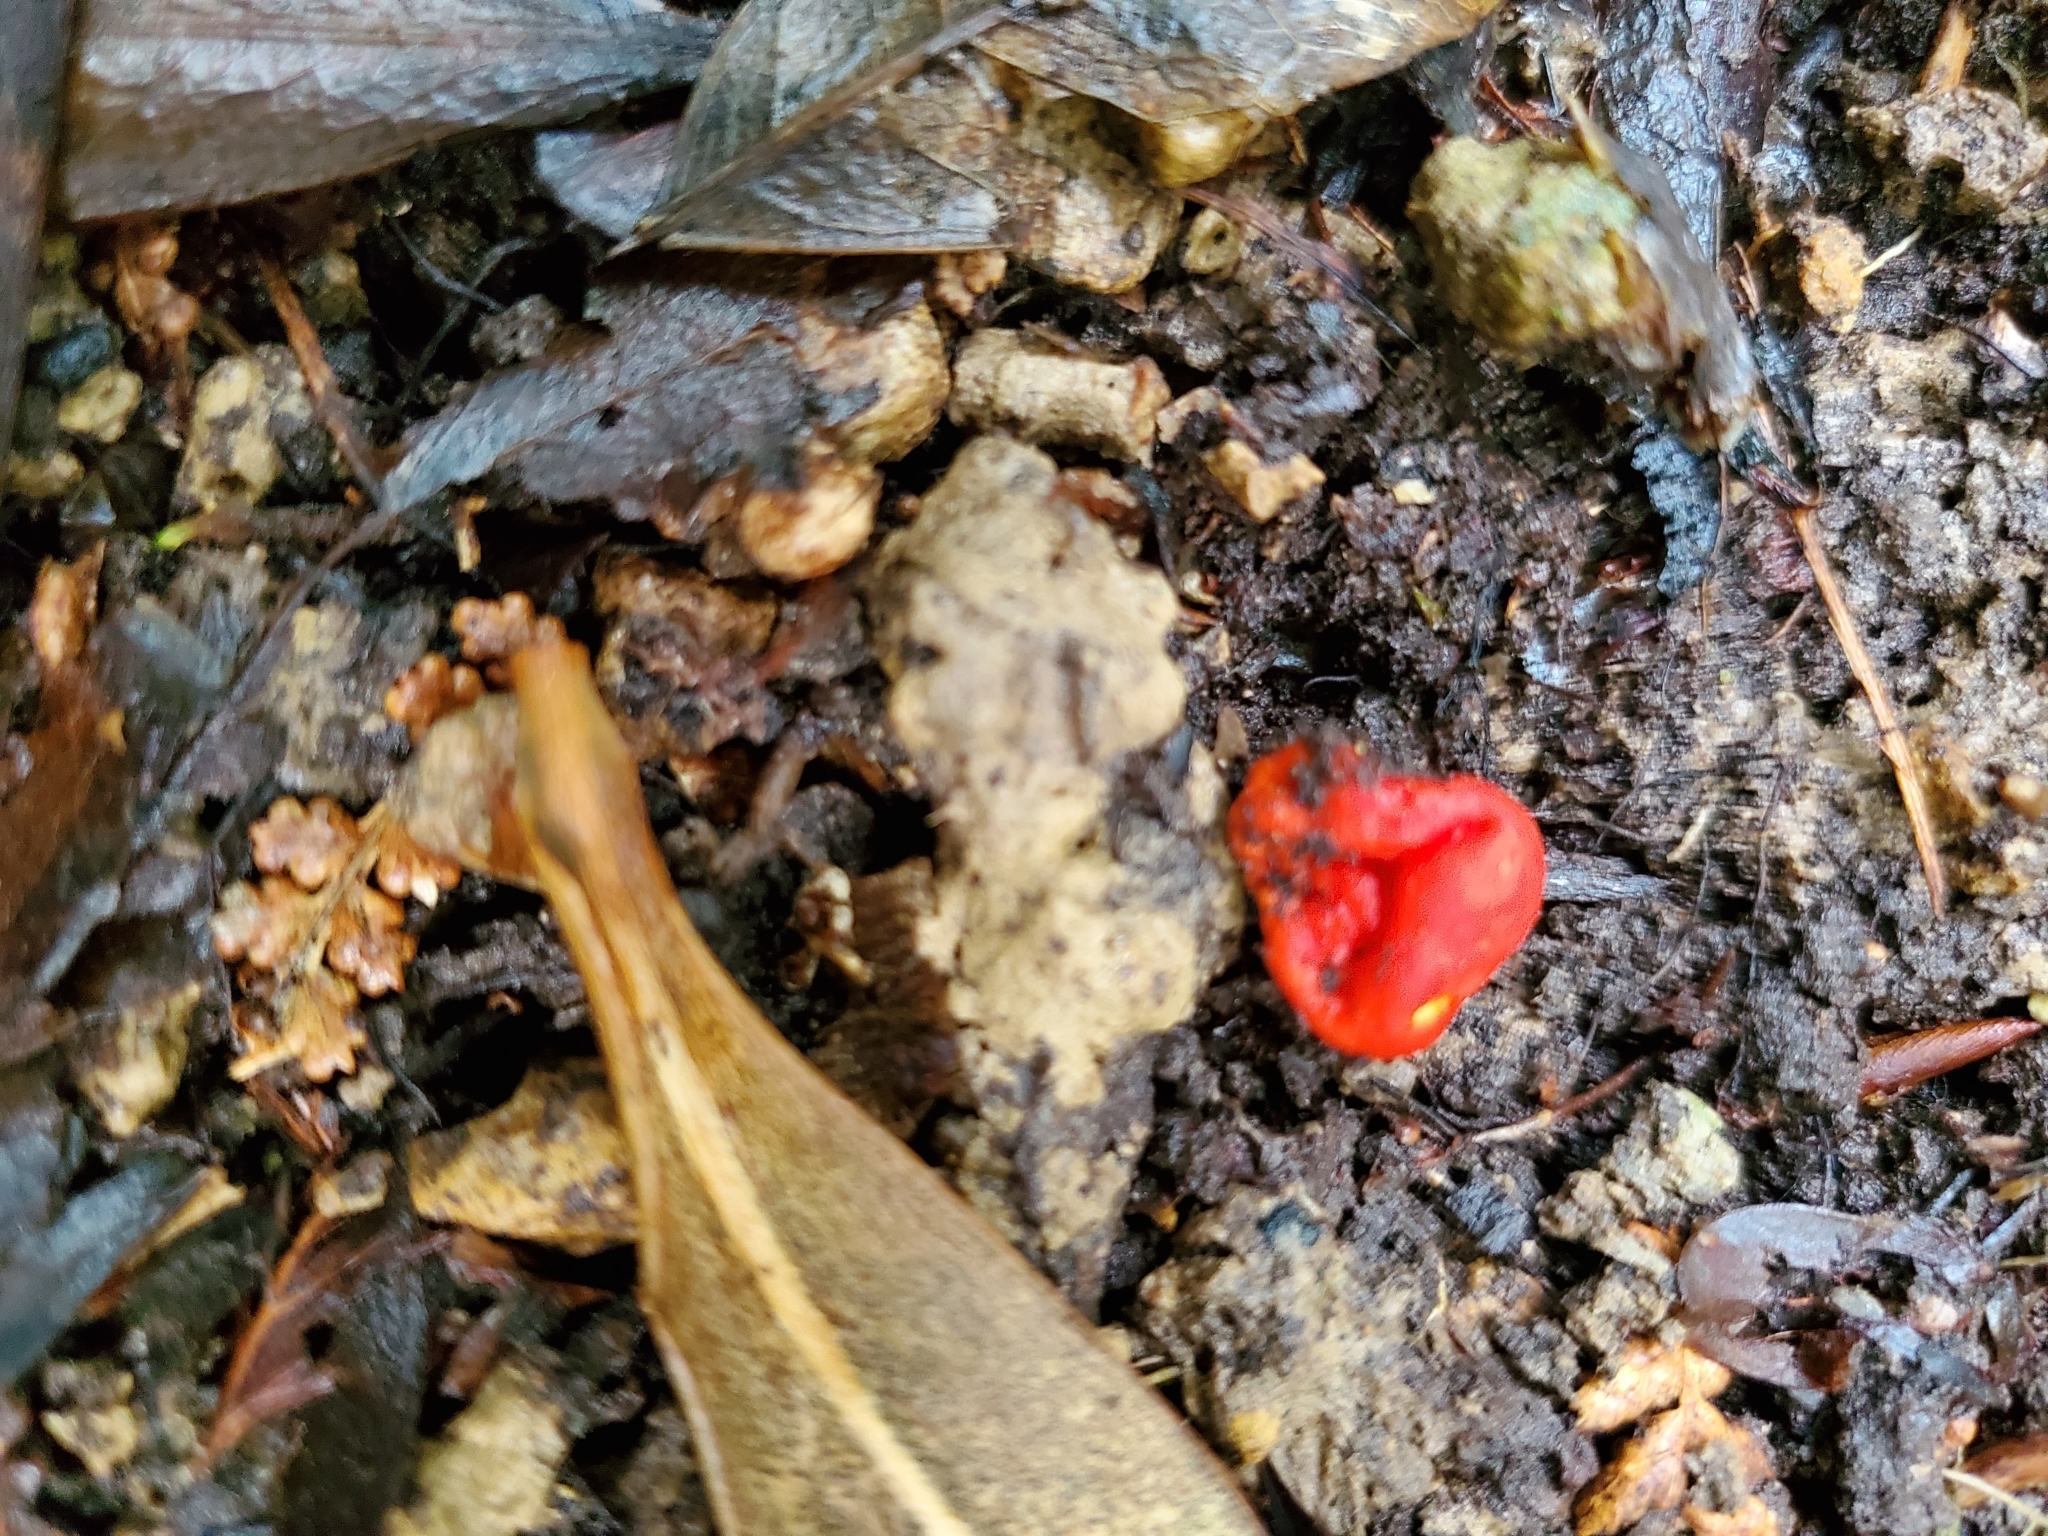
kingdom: Fungi
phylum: Ascomycota
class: Pezizomycetes
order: Pezizales
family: Pyronemataceae
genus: Paurocotylis
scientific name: Paurocotylis pila
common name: Scarlet berry truffle
